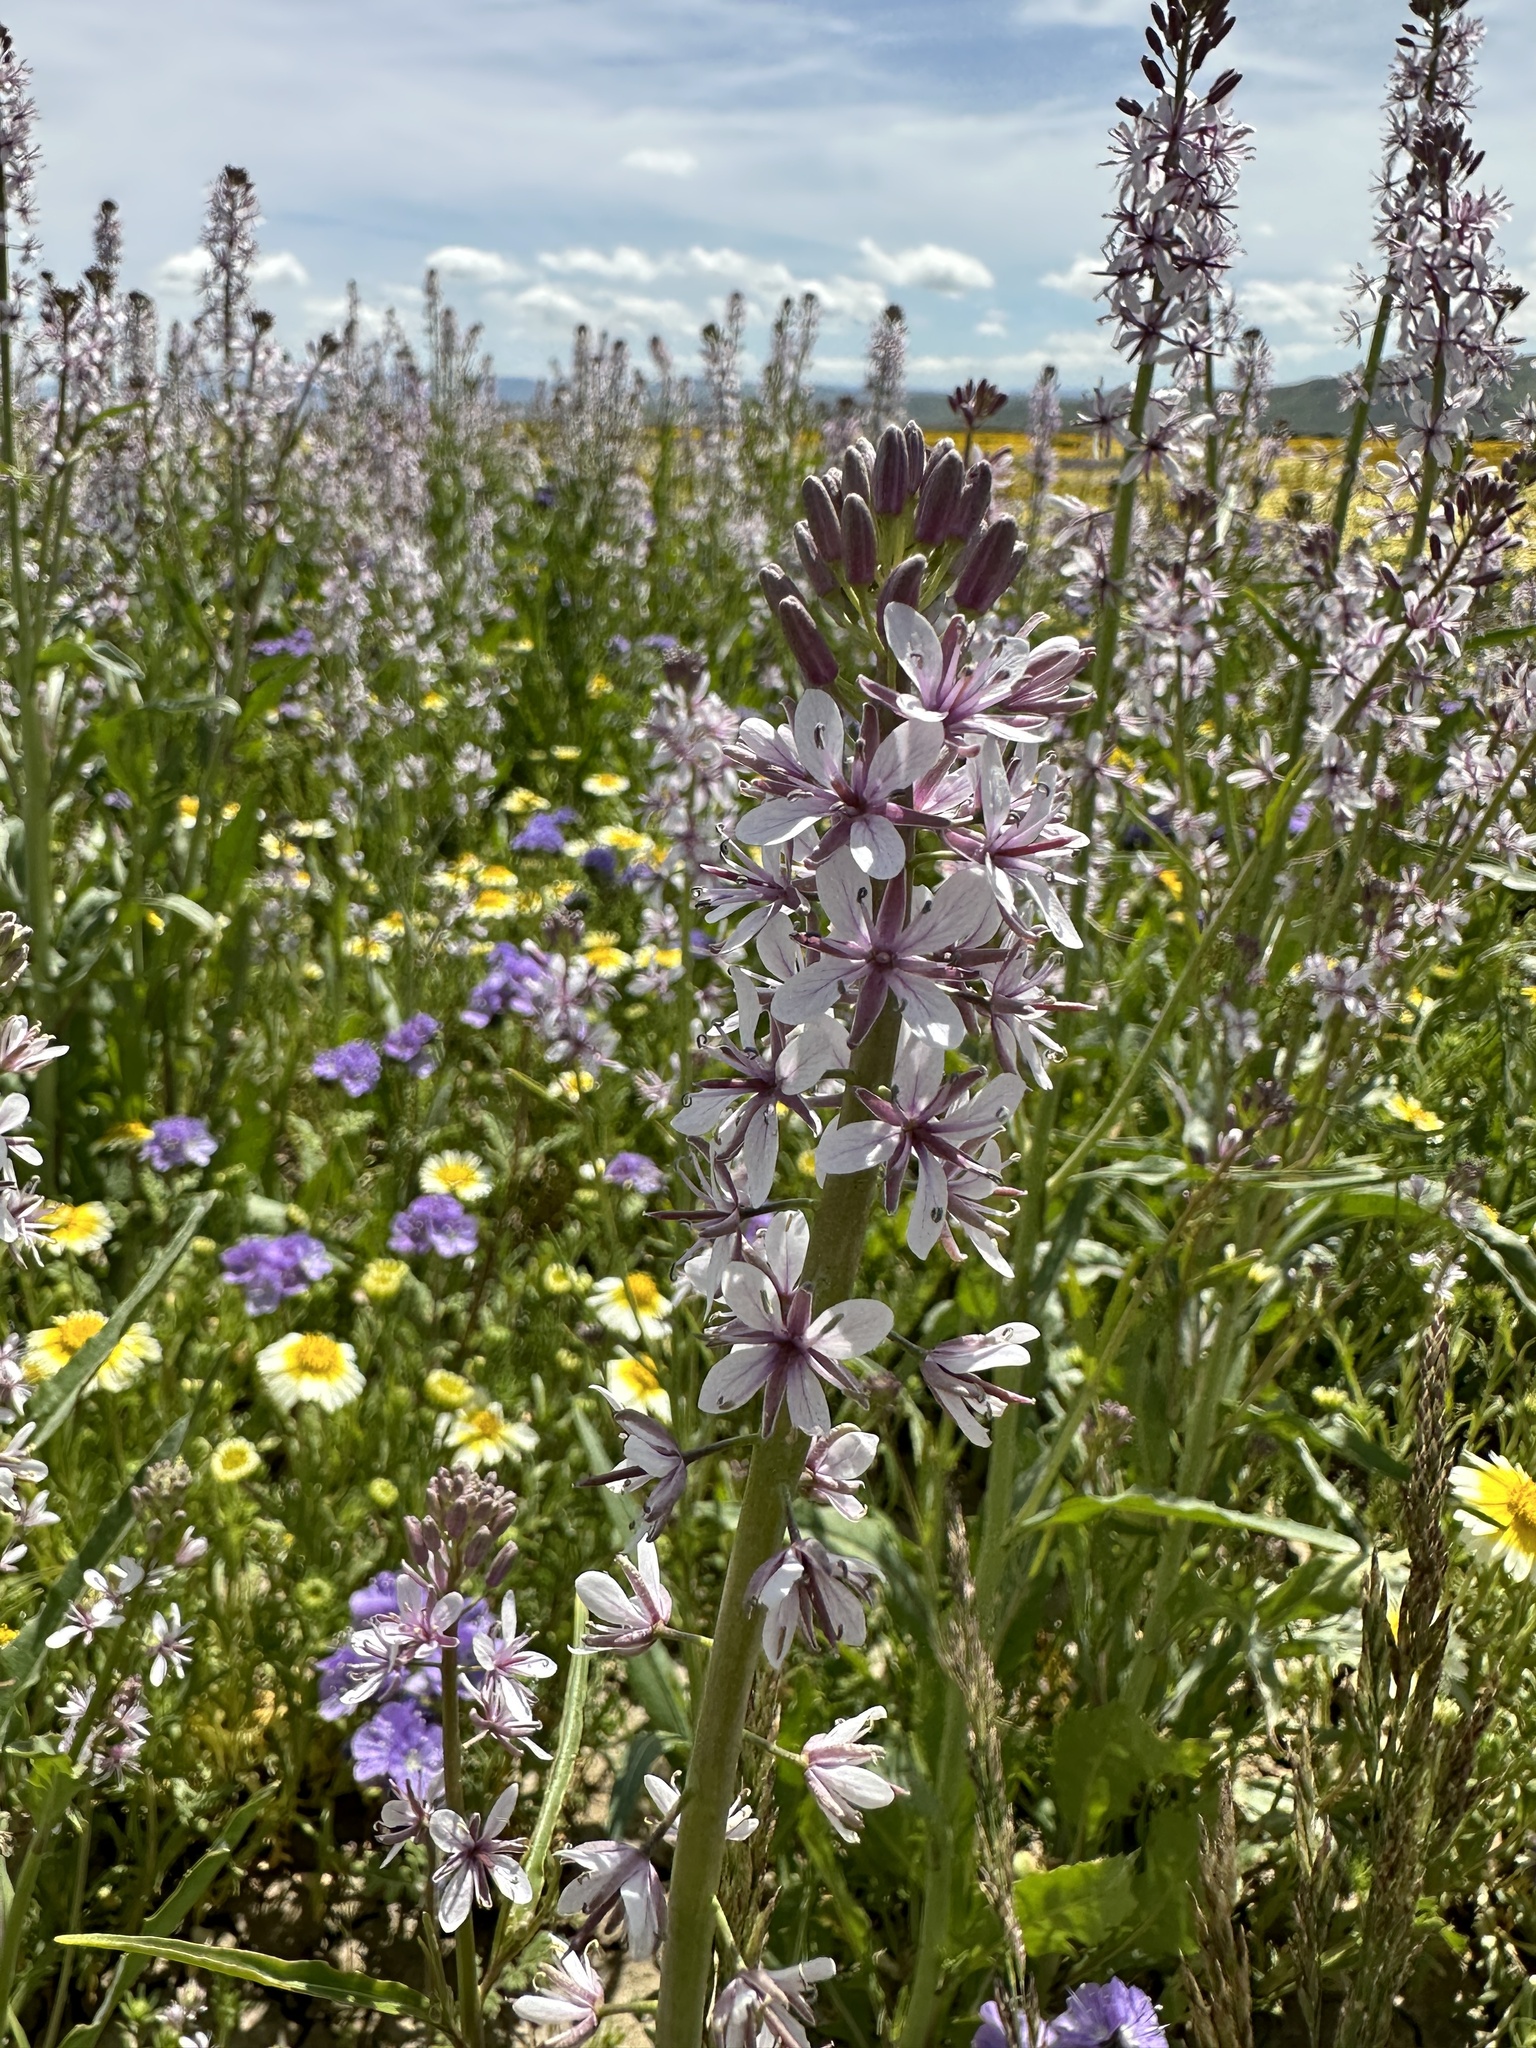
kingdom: Plantae
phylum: Tracheophyta
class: Magnoliopsida
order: Brassicales
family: Brassicaceae
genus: Streptanthus
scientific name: Streptanthus anceps
